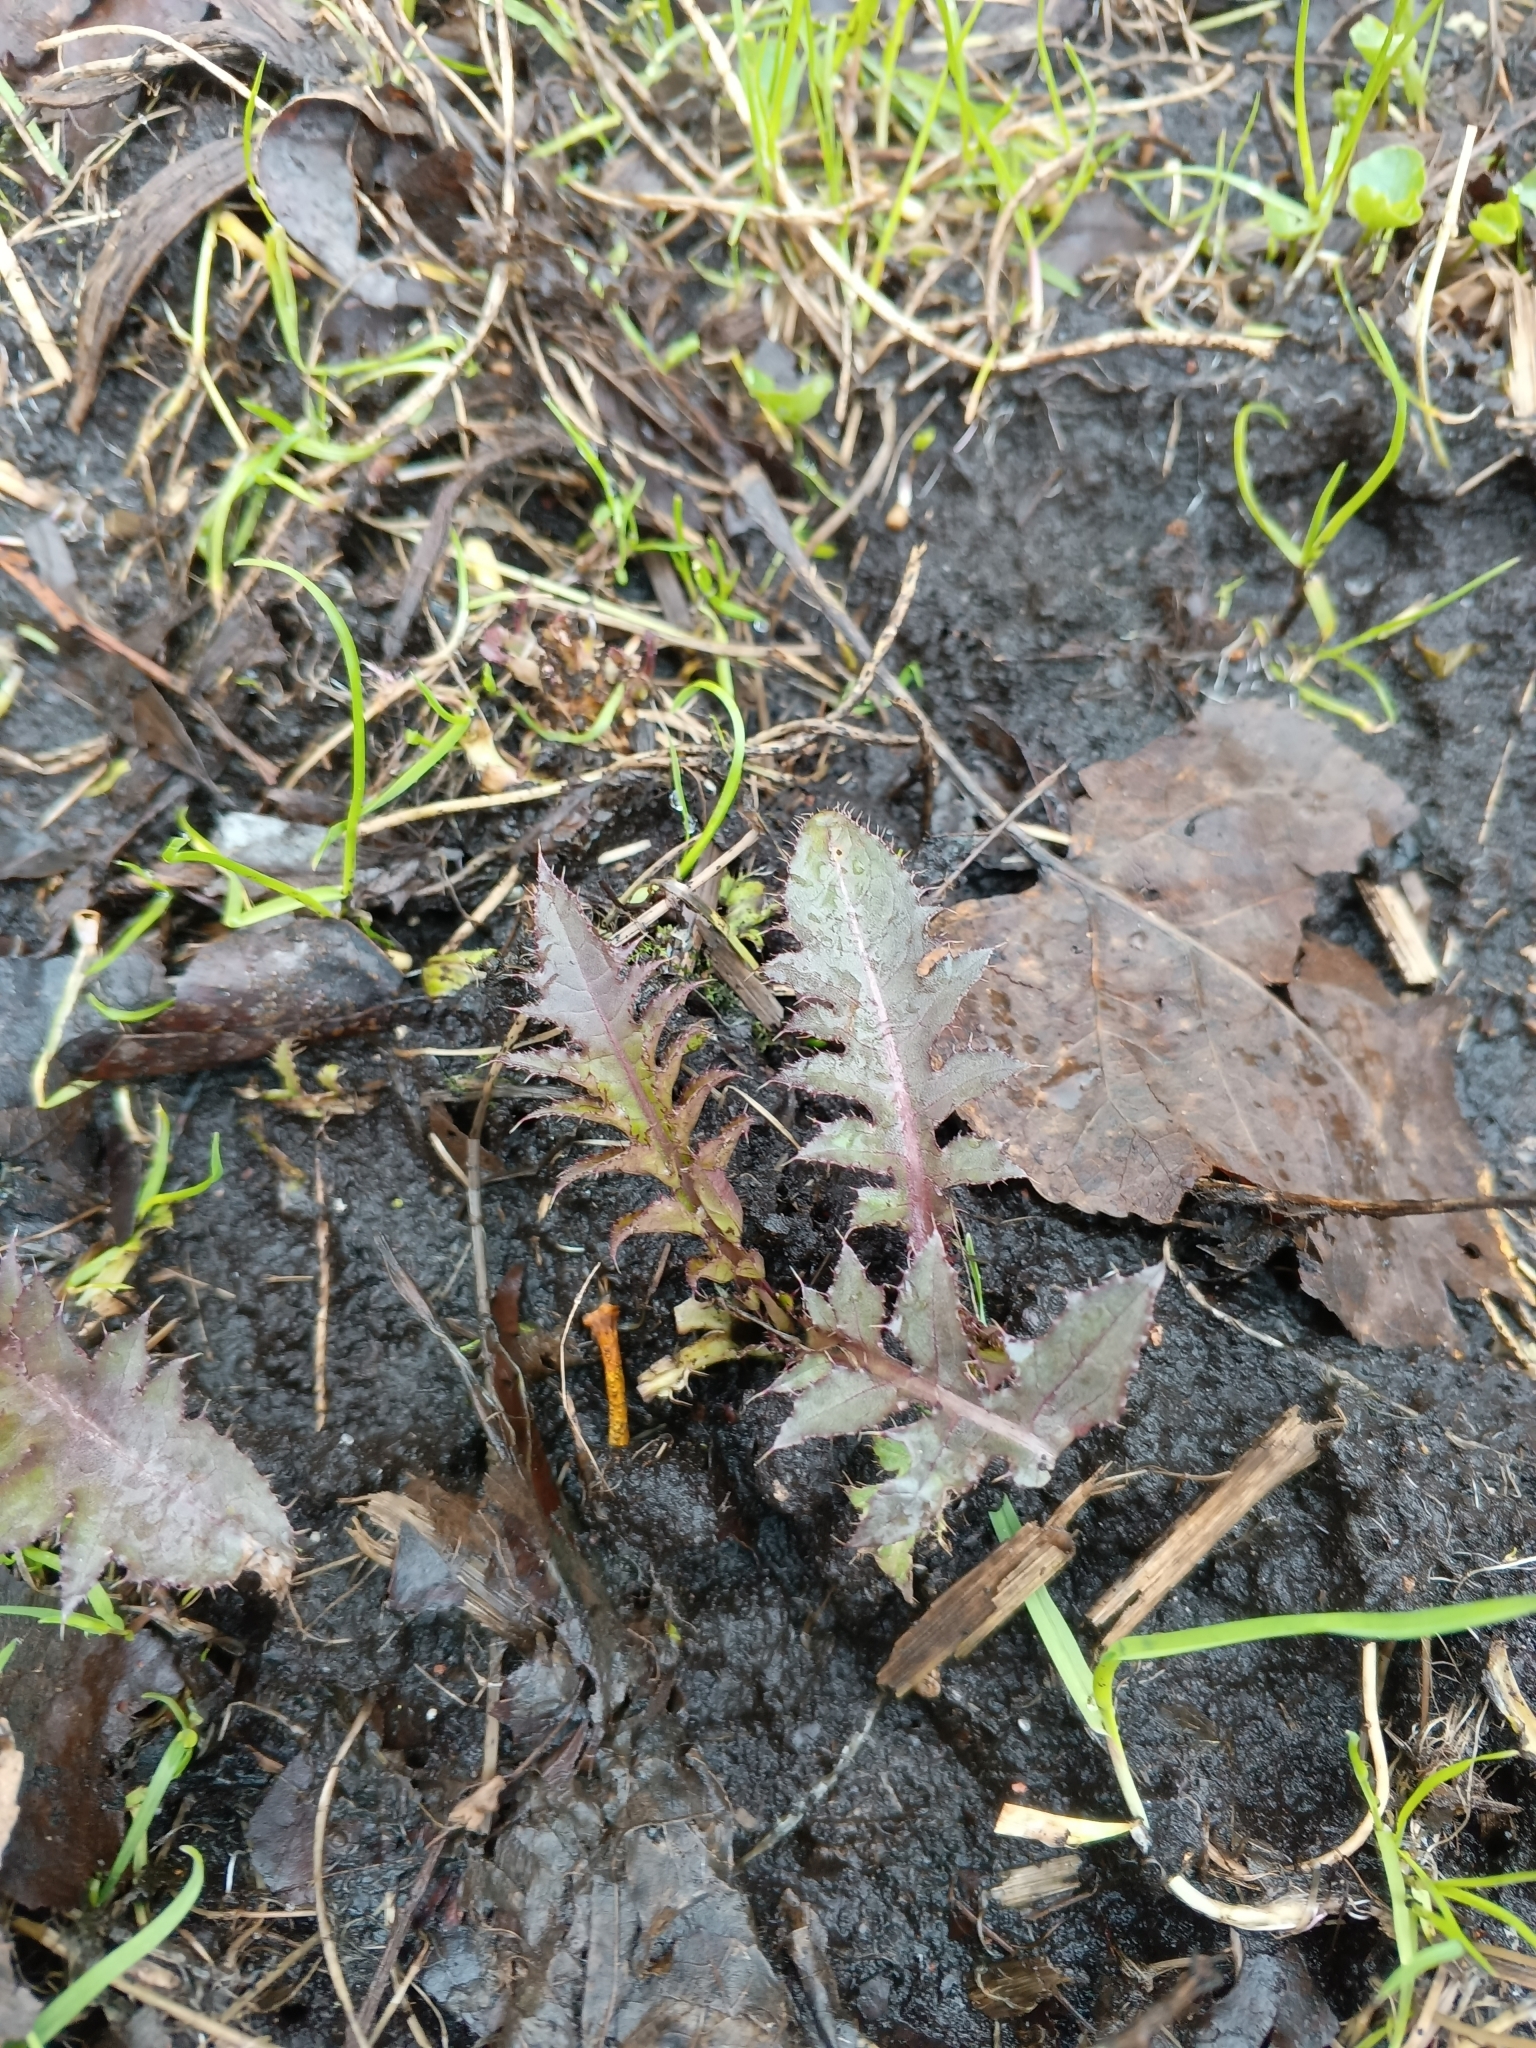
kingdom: Plantae
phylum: Tracheophyta
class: Magnoliopsida
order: Asterales
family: Asteraceae
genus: Cirsium
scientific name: Cirsium oleraceum
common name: Cabbage thistle
